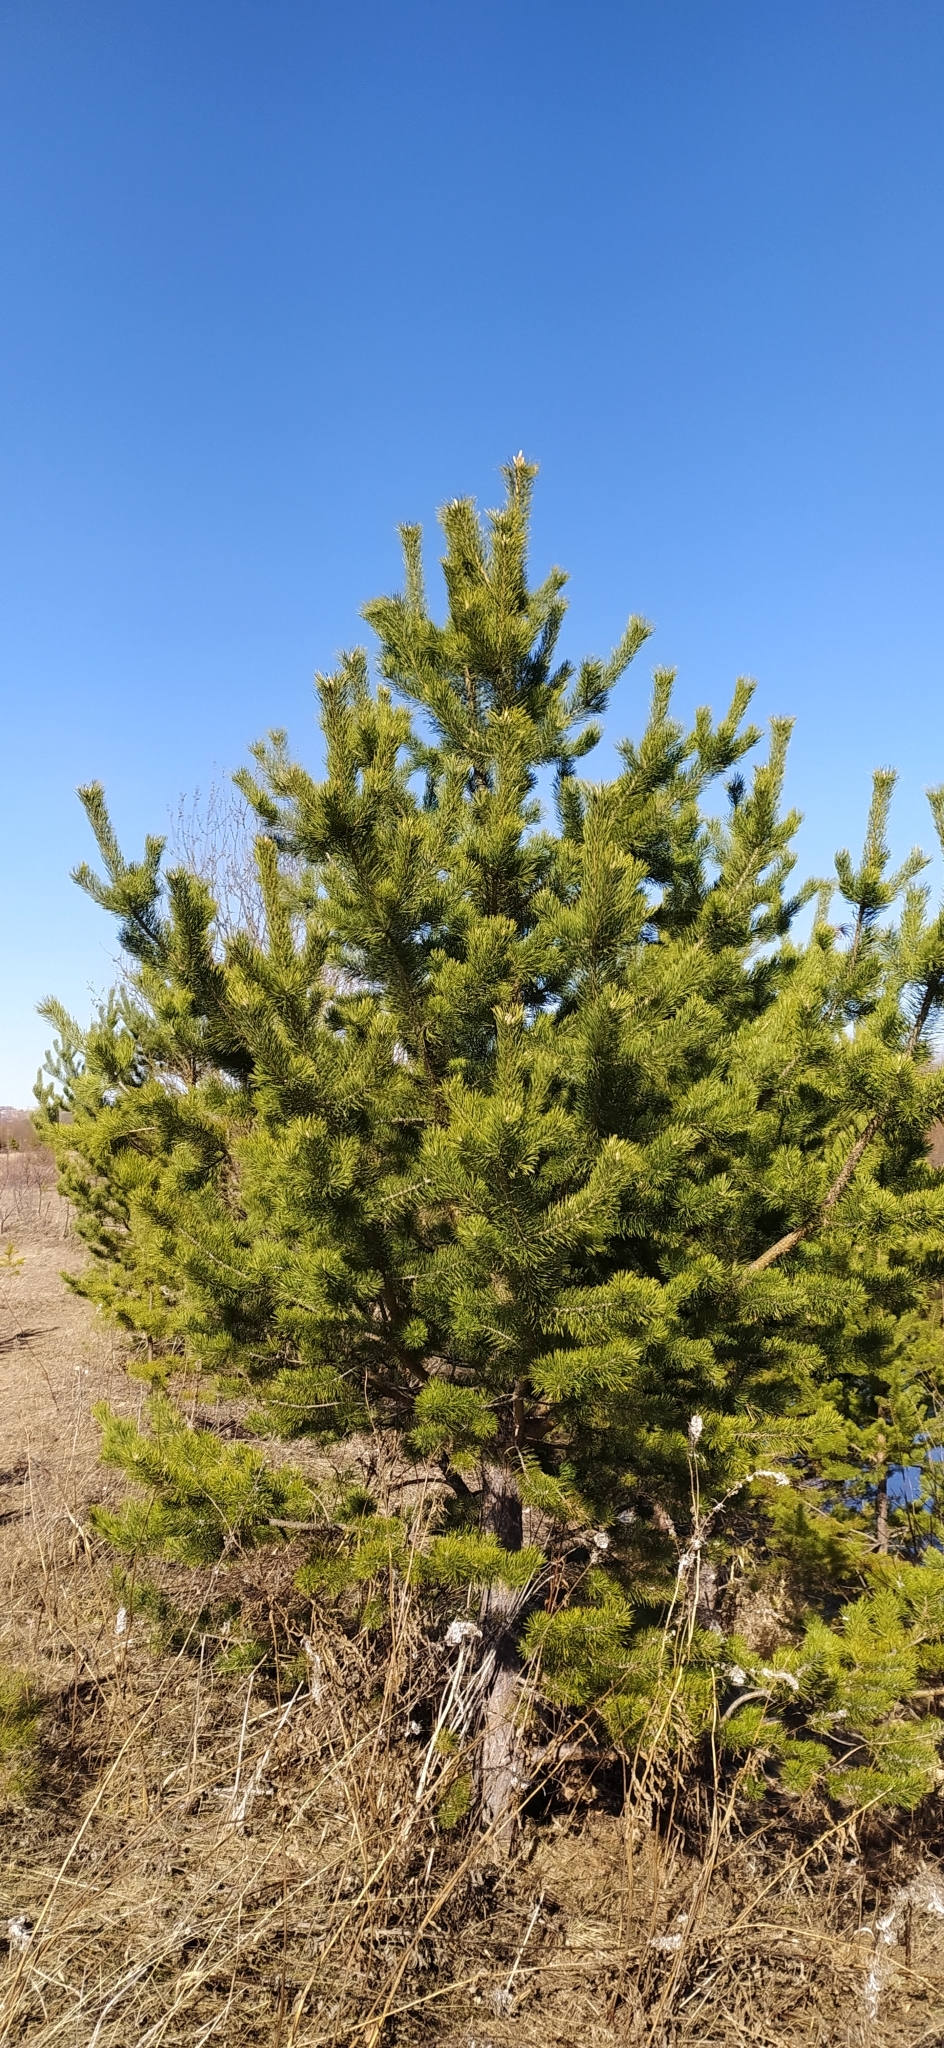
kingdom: Plantae
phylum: Tracheophyta
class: Pinopsida
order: Pinales
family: Pinaceae
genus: Pinus
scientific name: Pinus sylvestris
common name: Scots pine
